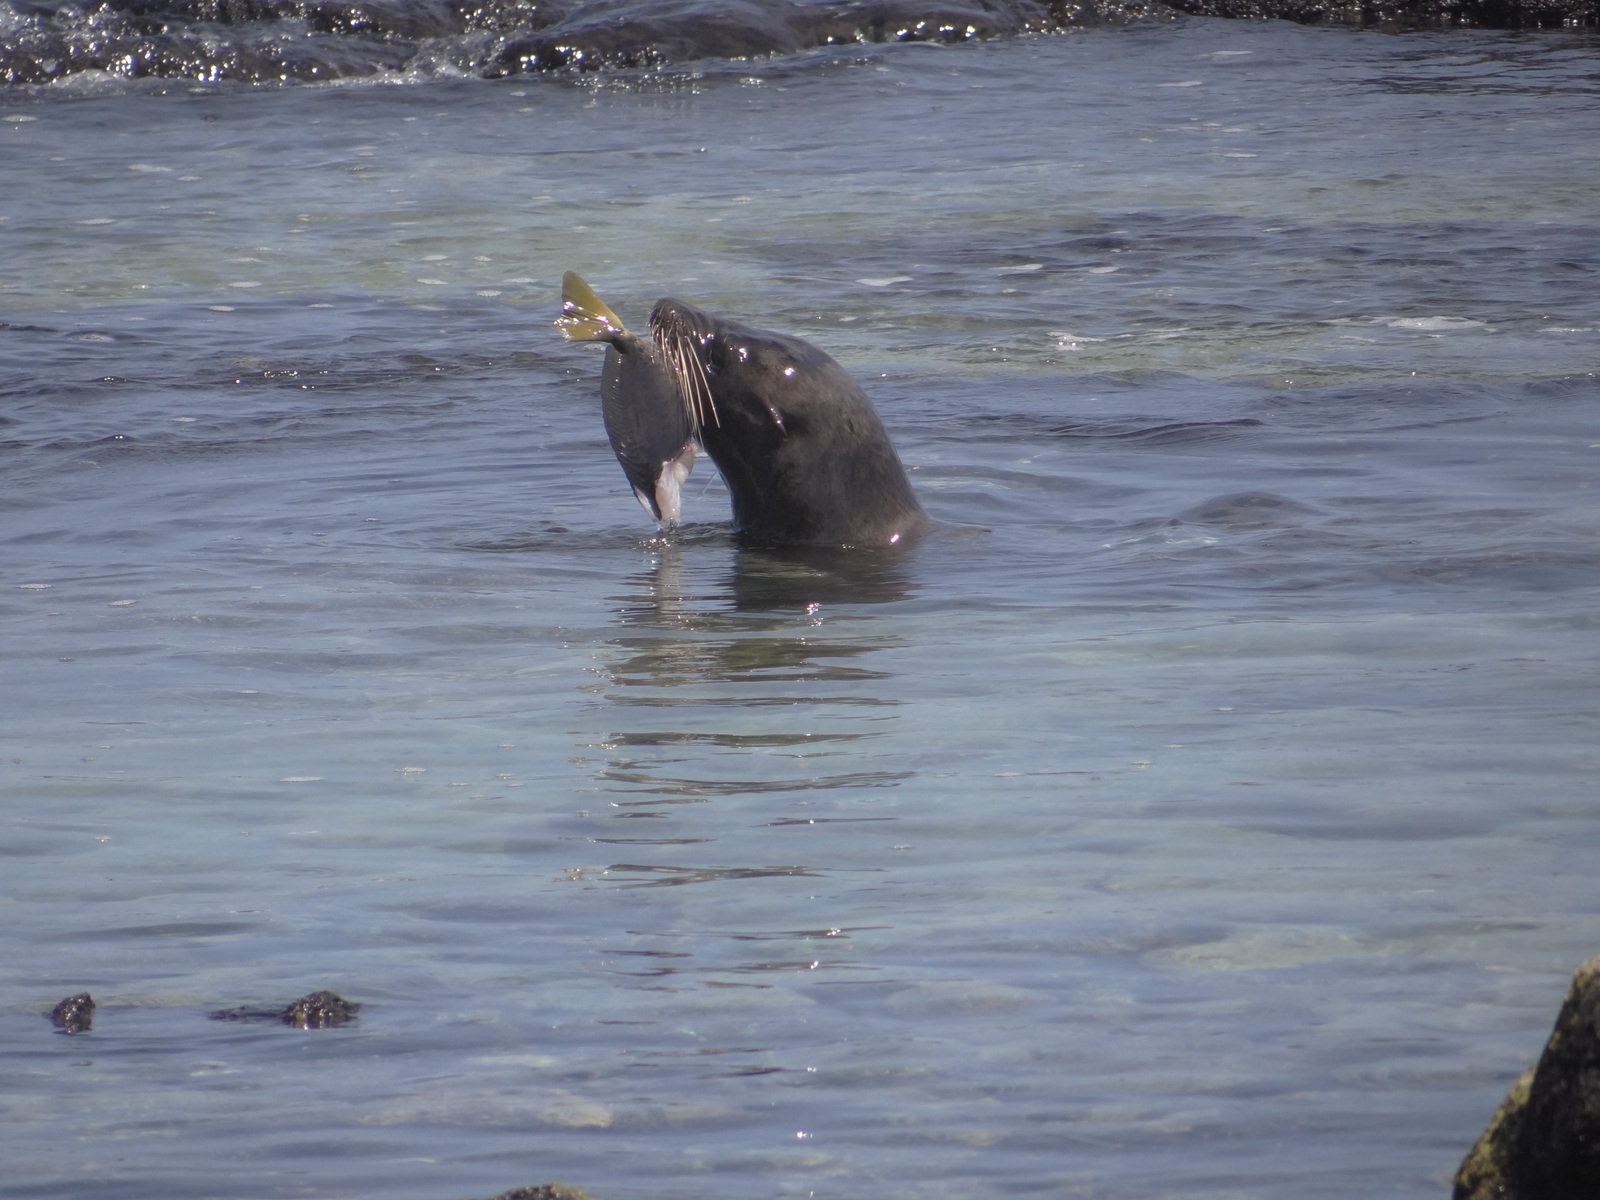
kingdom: Animalia
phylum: Chordata
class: Mammalia
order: Carnivora
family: Otariidae
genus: Zalophus
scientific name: Zalophus wollebaeki
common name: Galapagos sea lion
